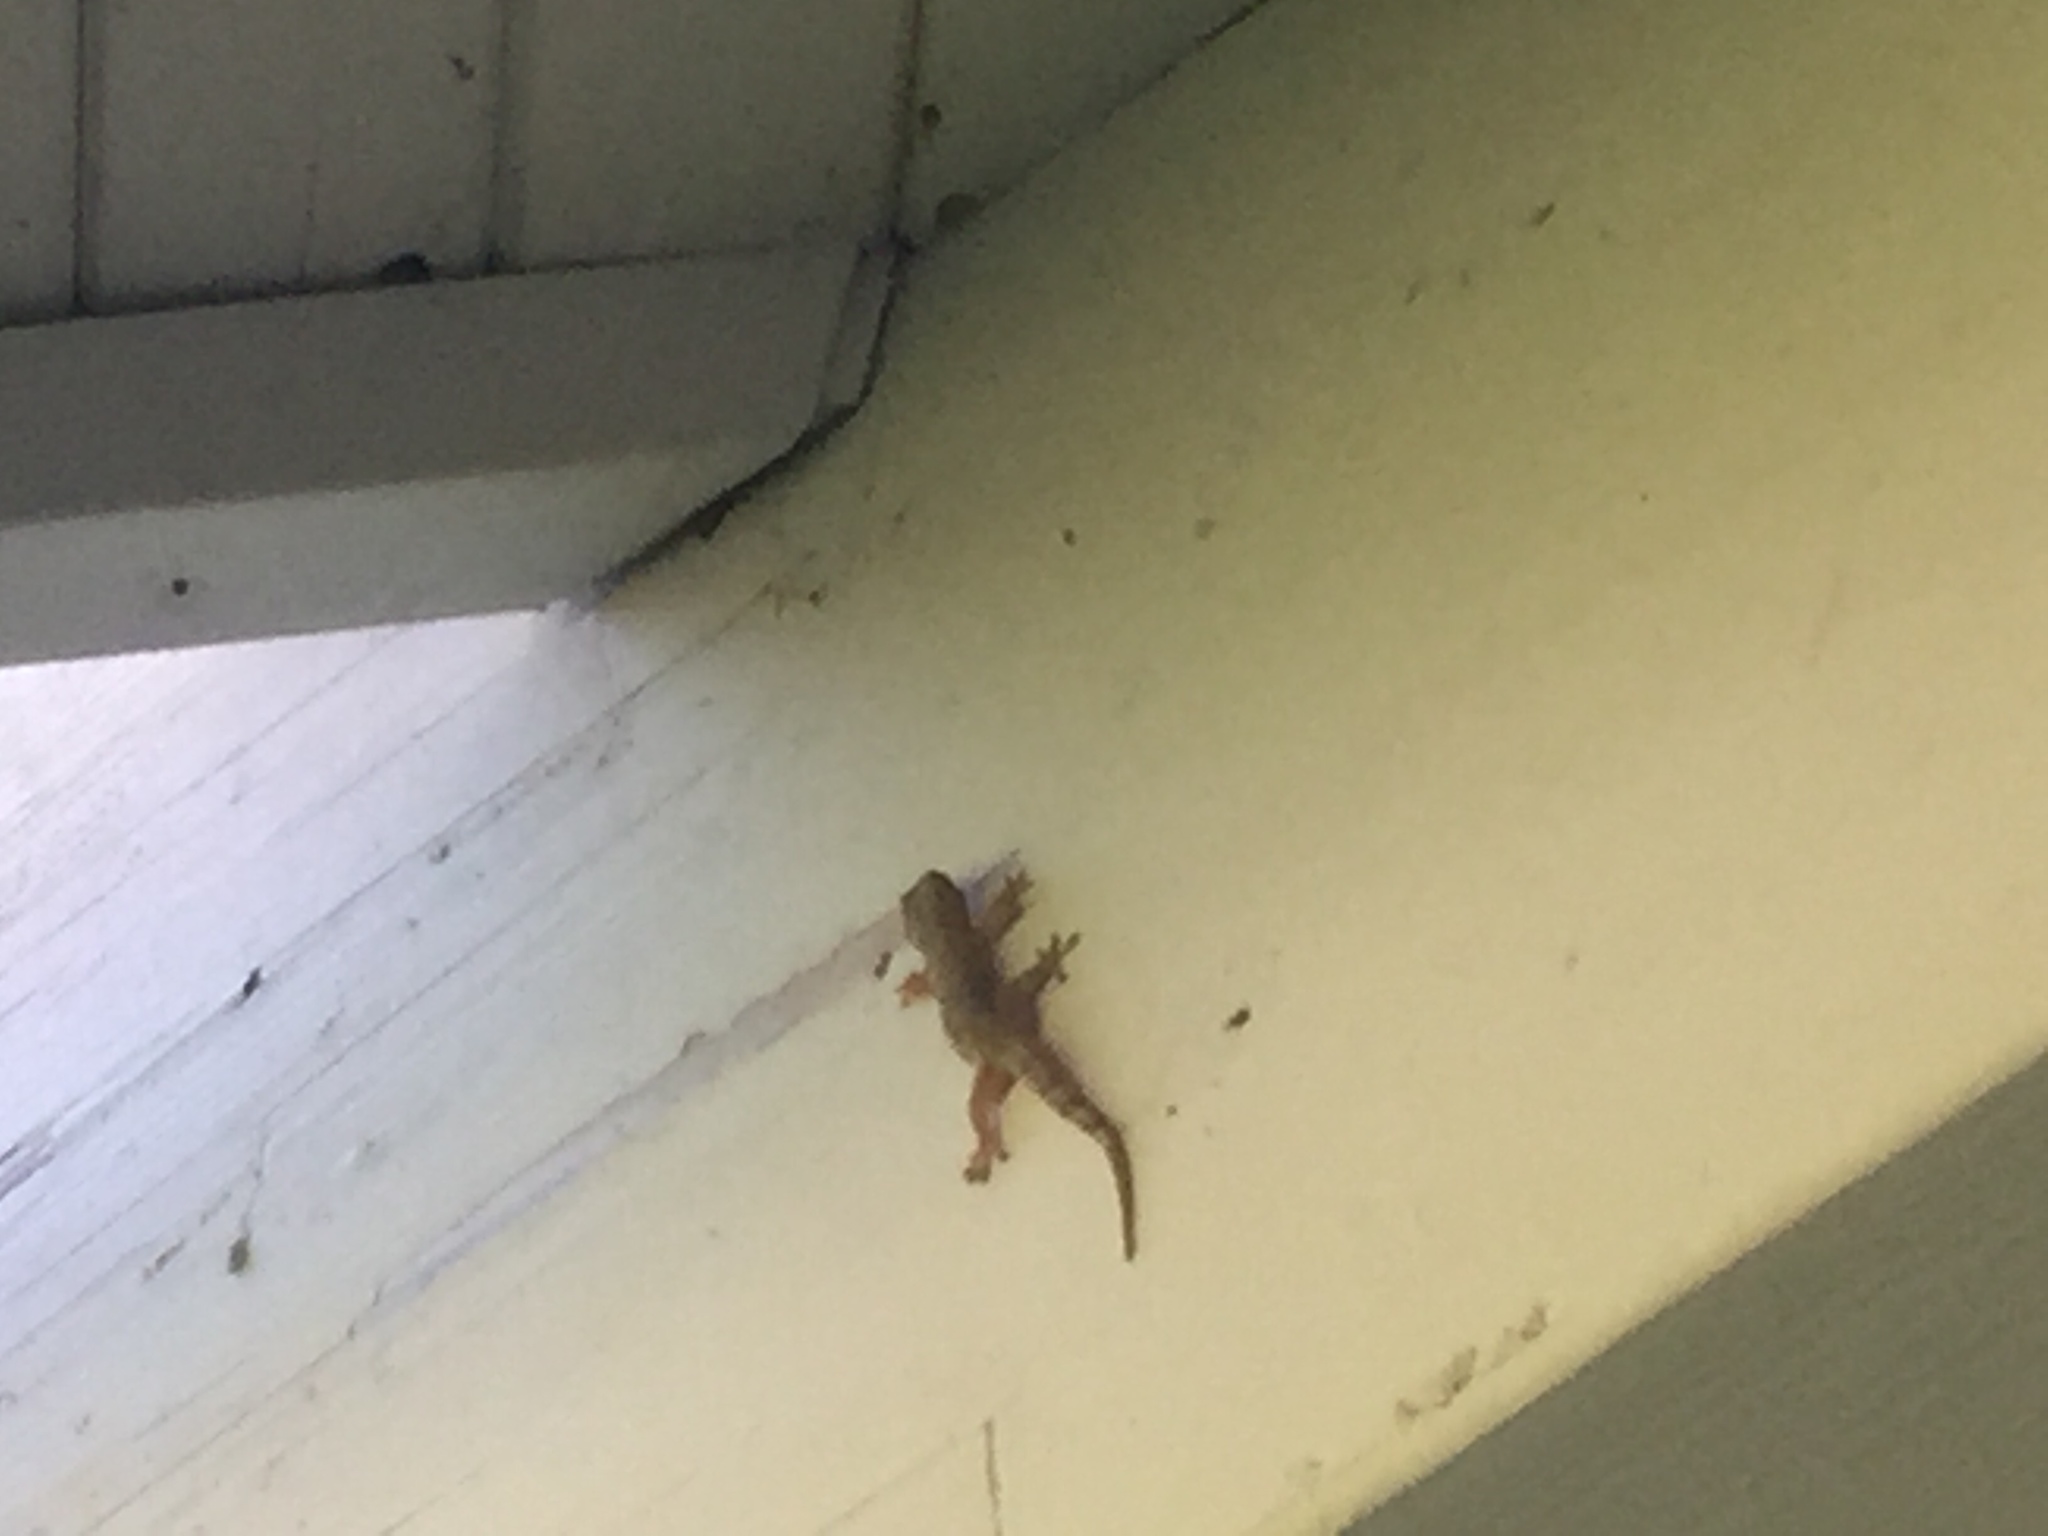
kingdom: Animalia
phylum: Chordata
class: Squamata
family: Gekkonidae
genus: Hemidactylus
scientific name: Hemidactylus mabouia
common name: House gecko
